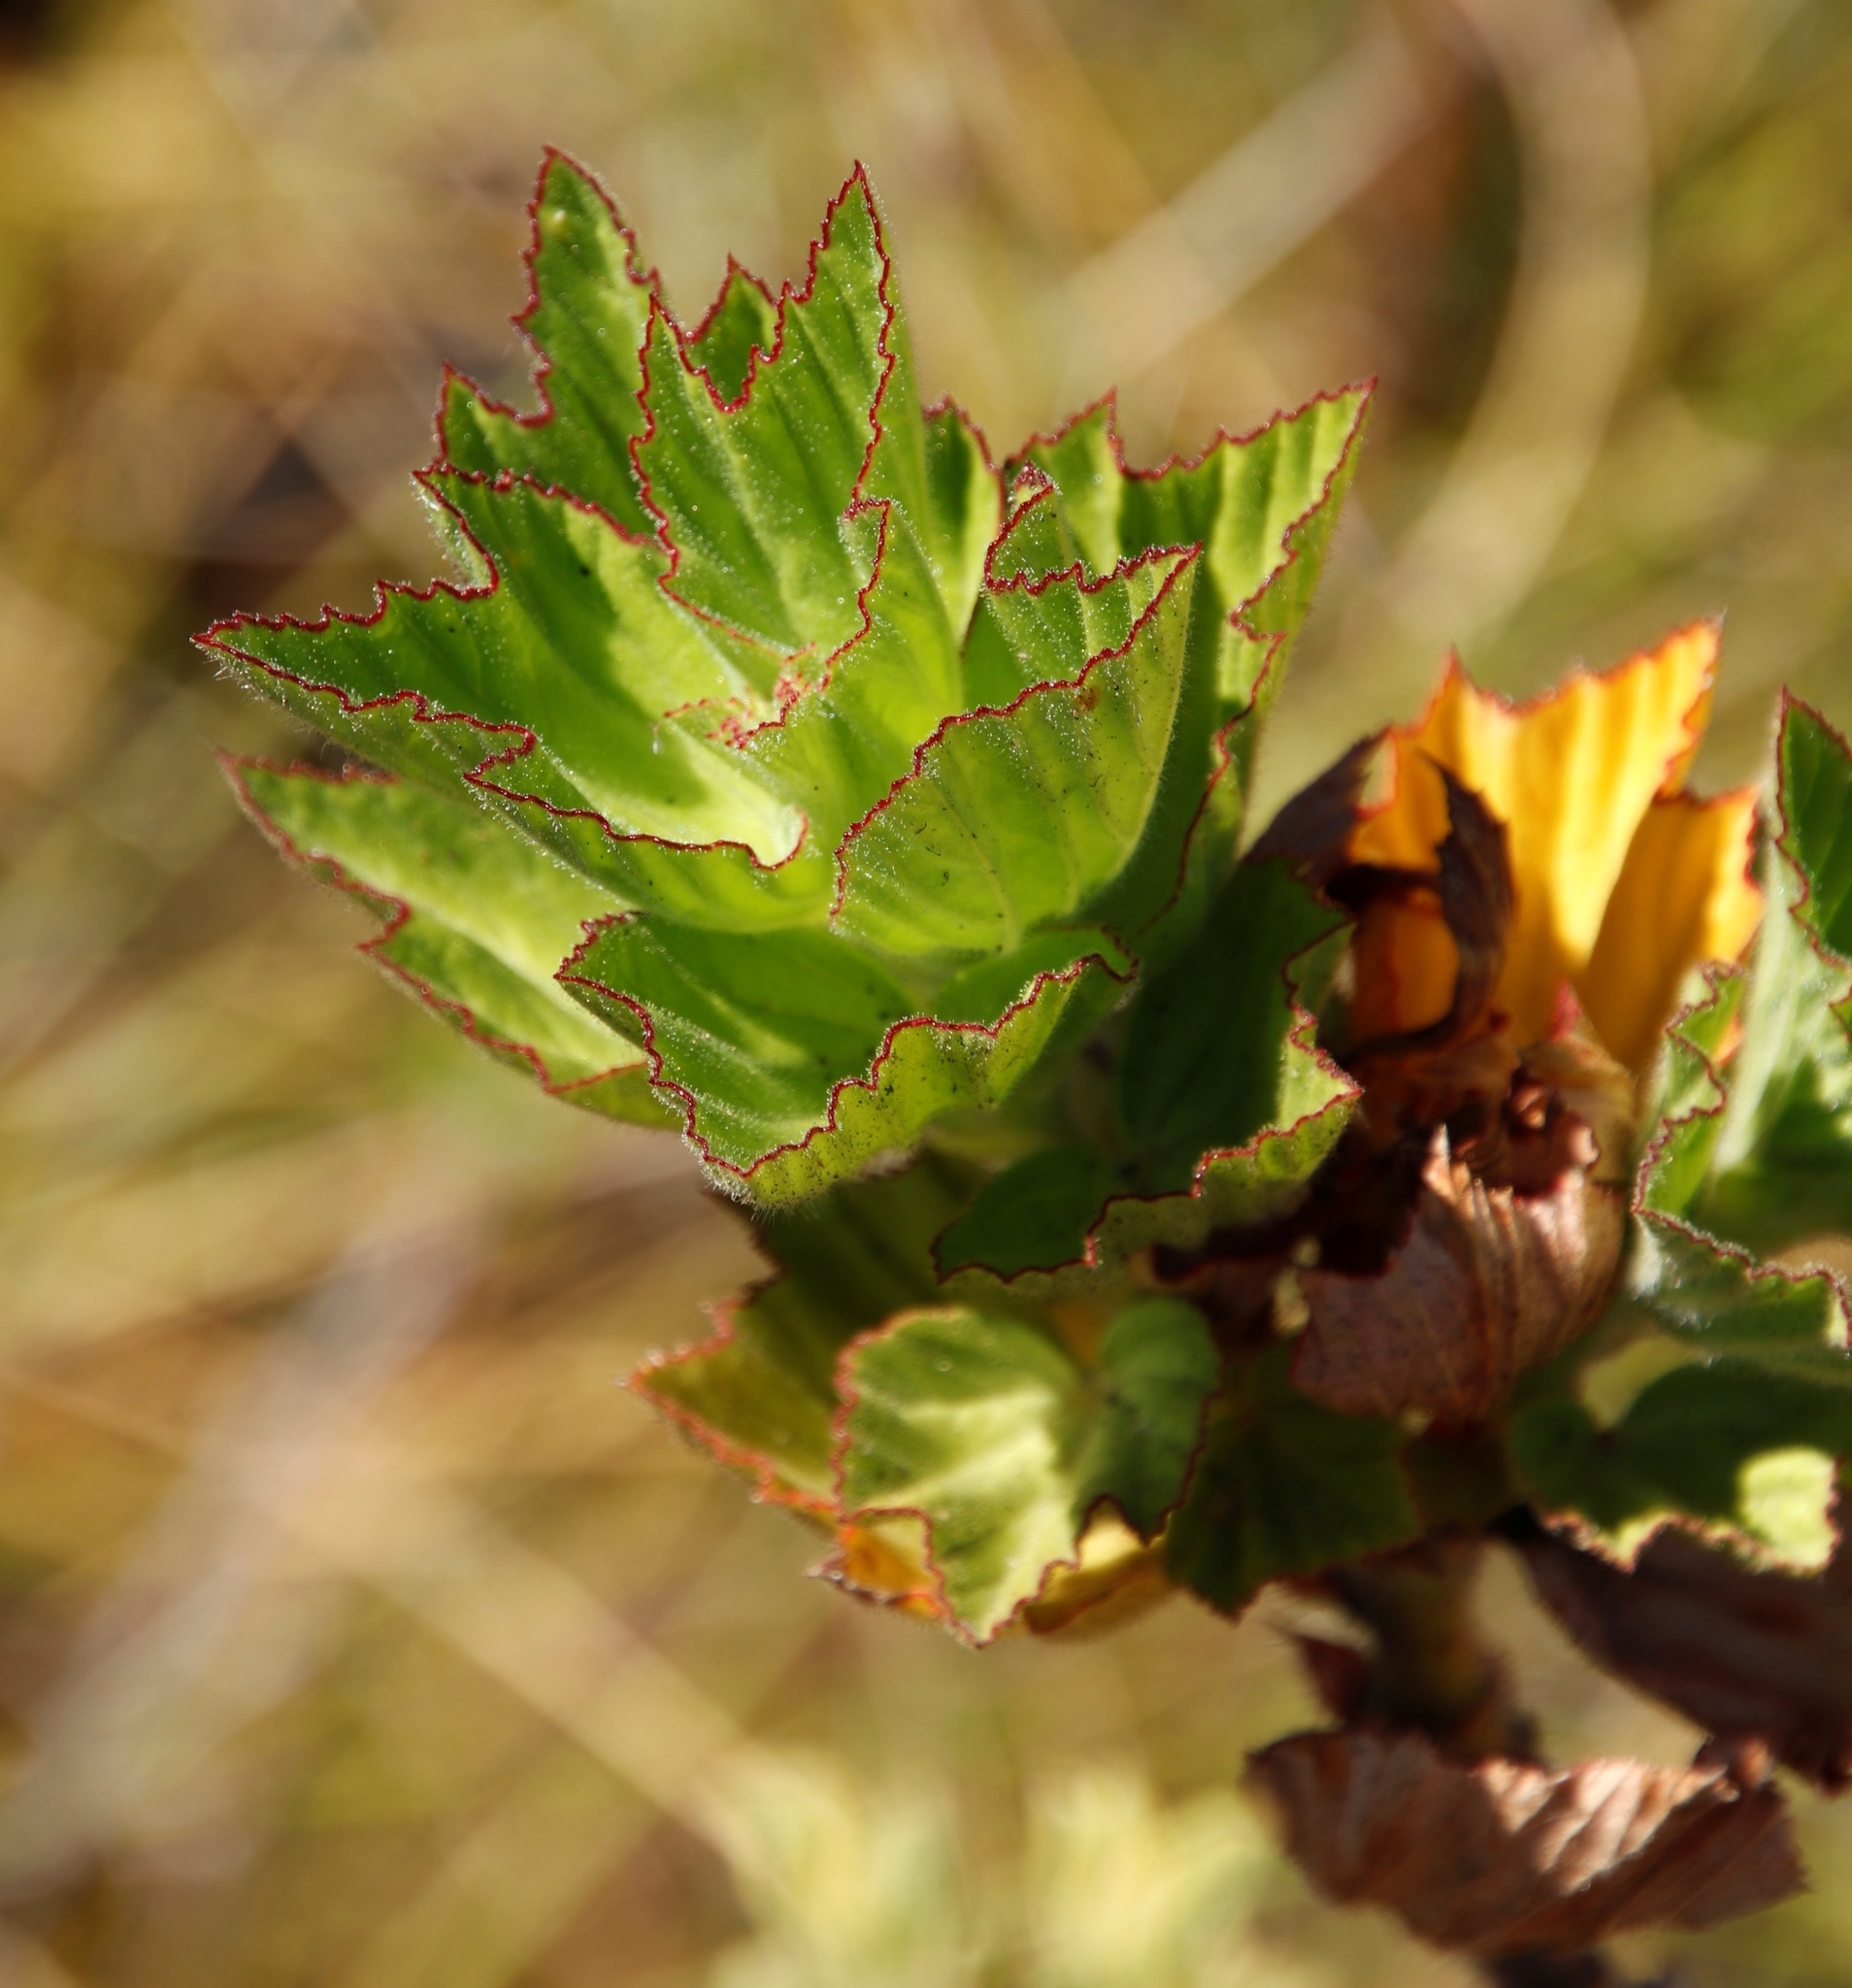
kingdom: Plantae
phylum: Tracheophyta
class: Magnoliopsida
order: Geraniales
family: Geraniaceae
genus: Pelargonium
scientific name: Pelargonium cucullatum
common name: Tree pelargonium
